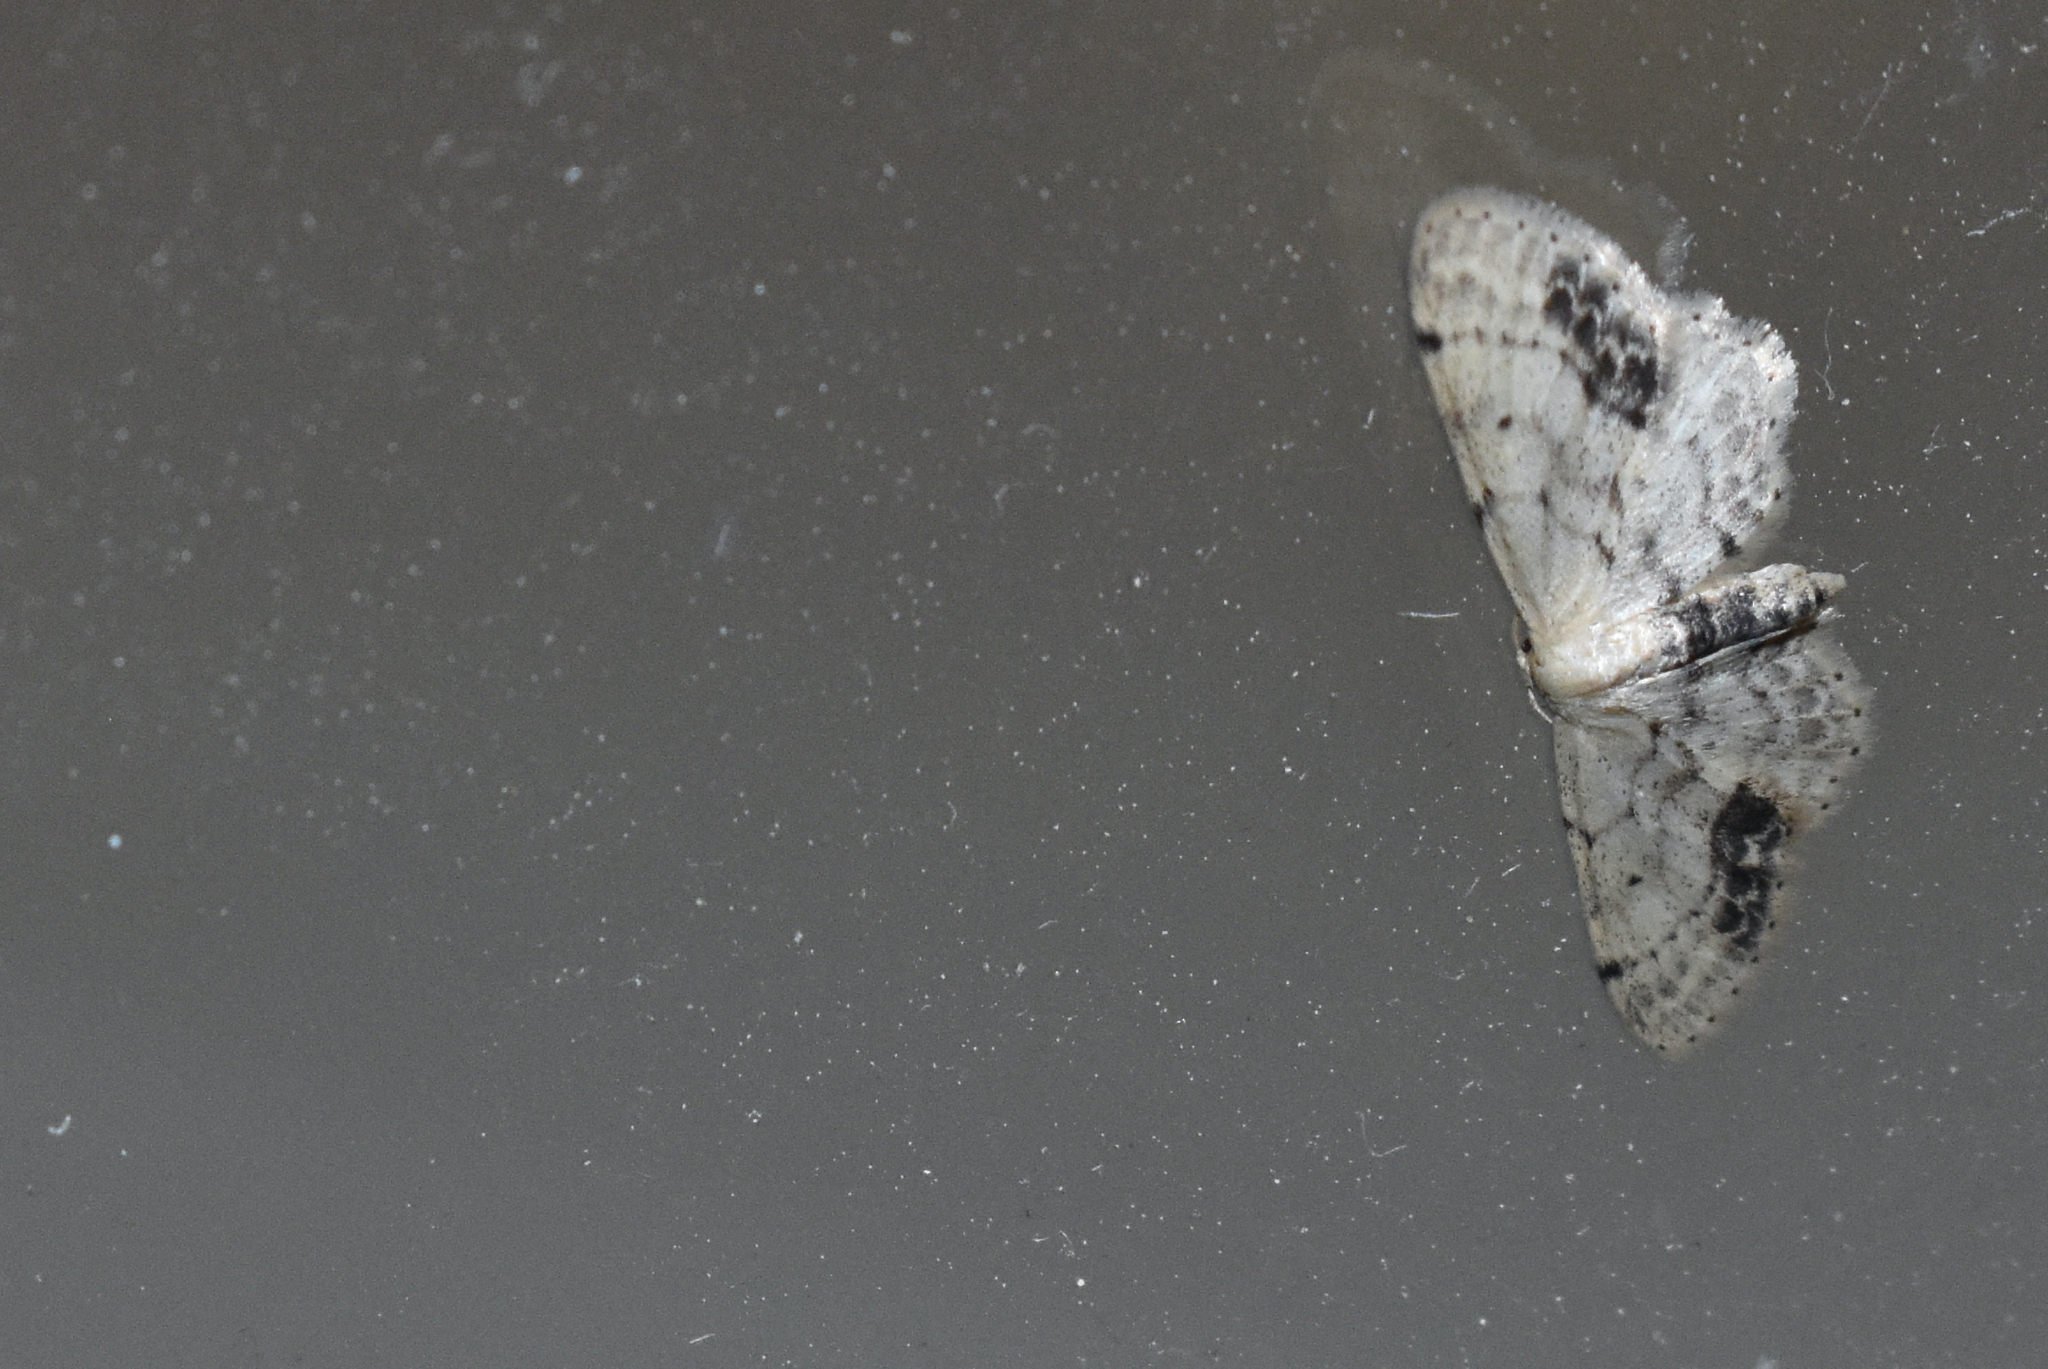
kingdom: Animalia
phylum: Arthropoda
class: Insecta
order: Lepidoptera
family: Geometridae
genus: Idaea
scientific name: Idaea dimidiata
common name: Single-dotted wave
